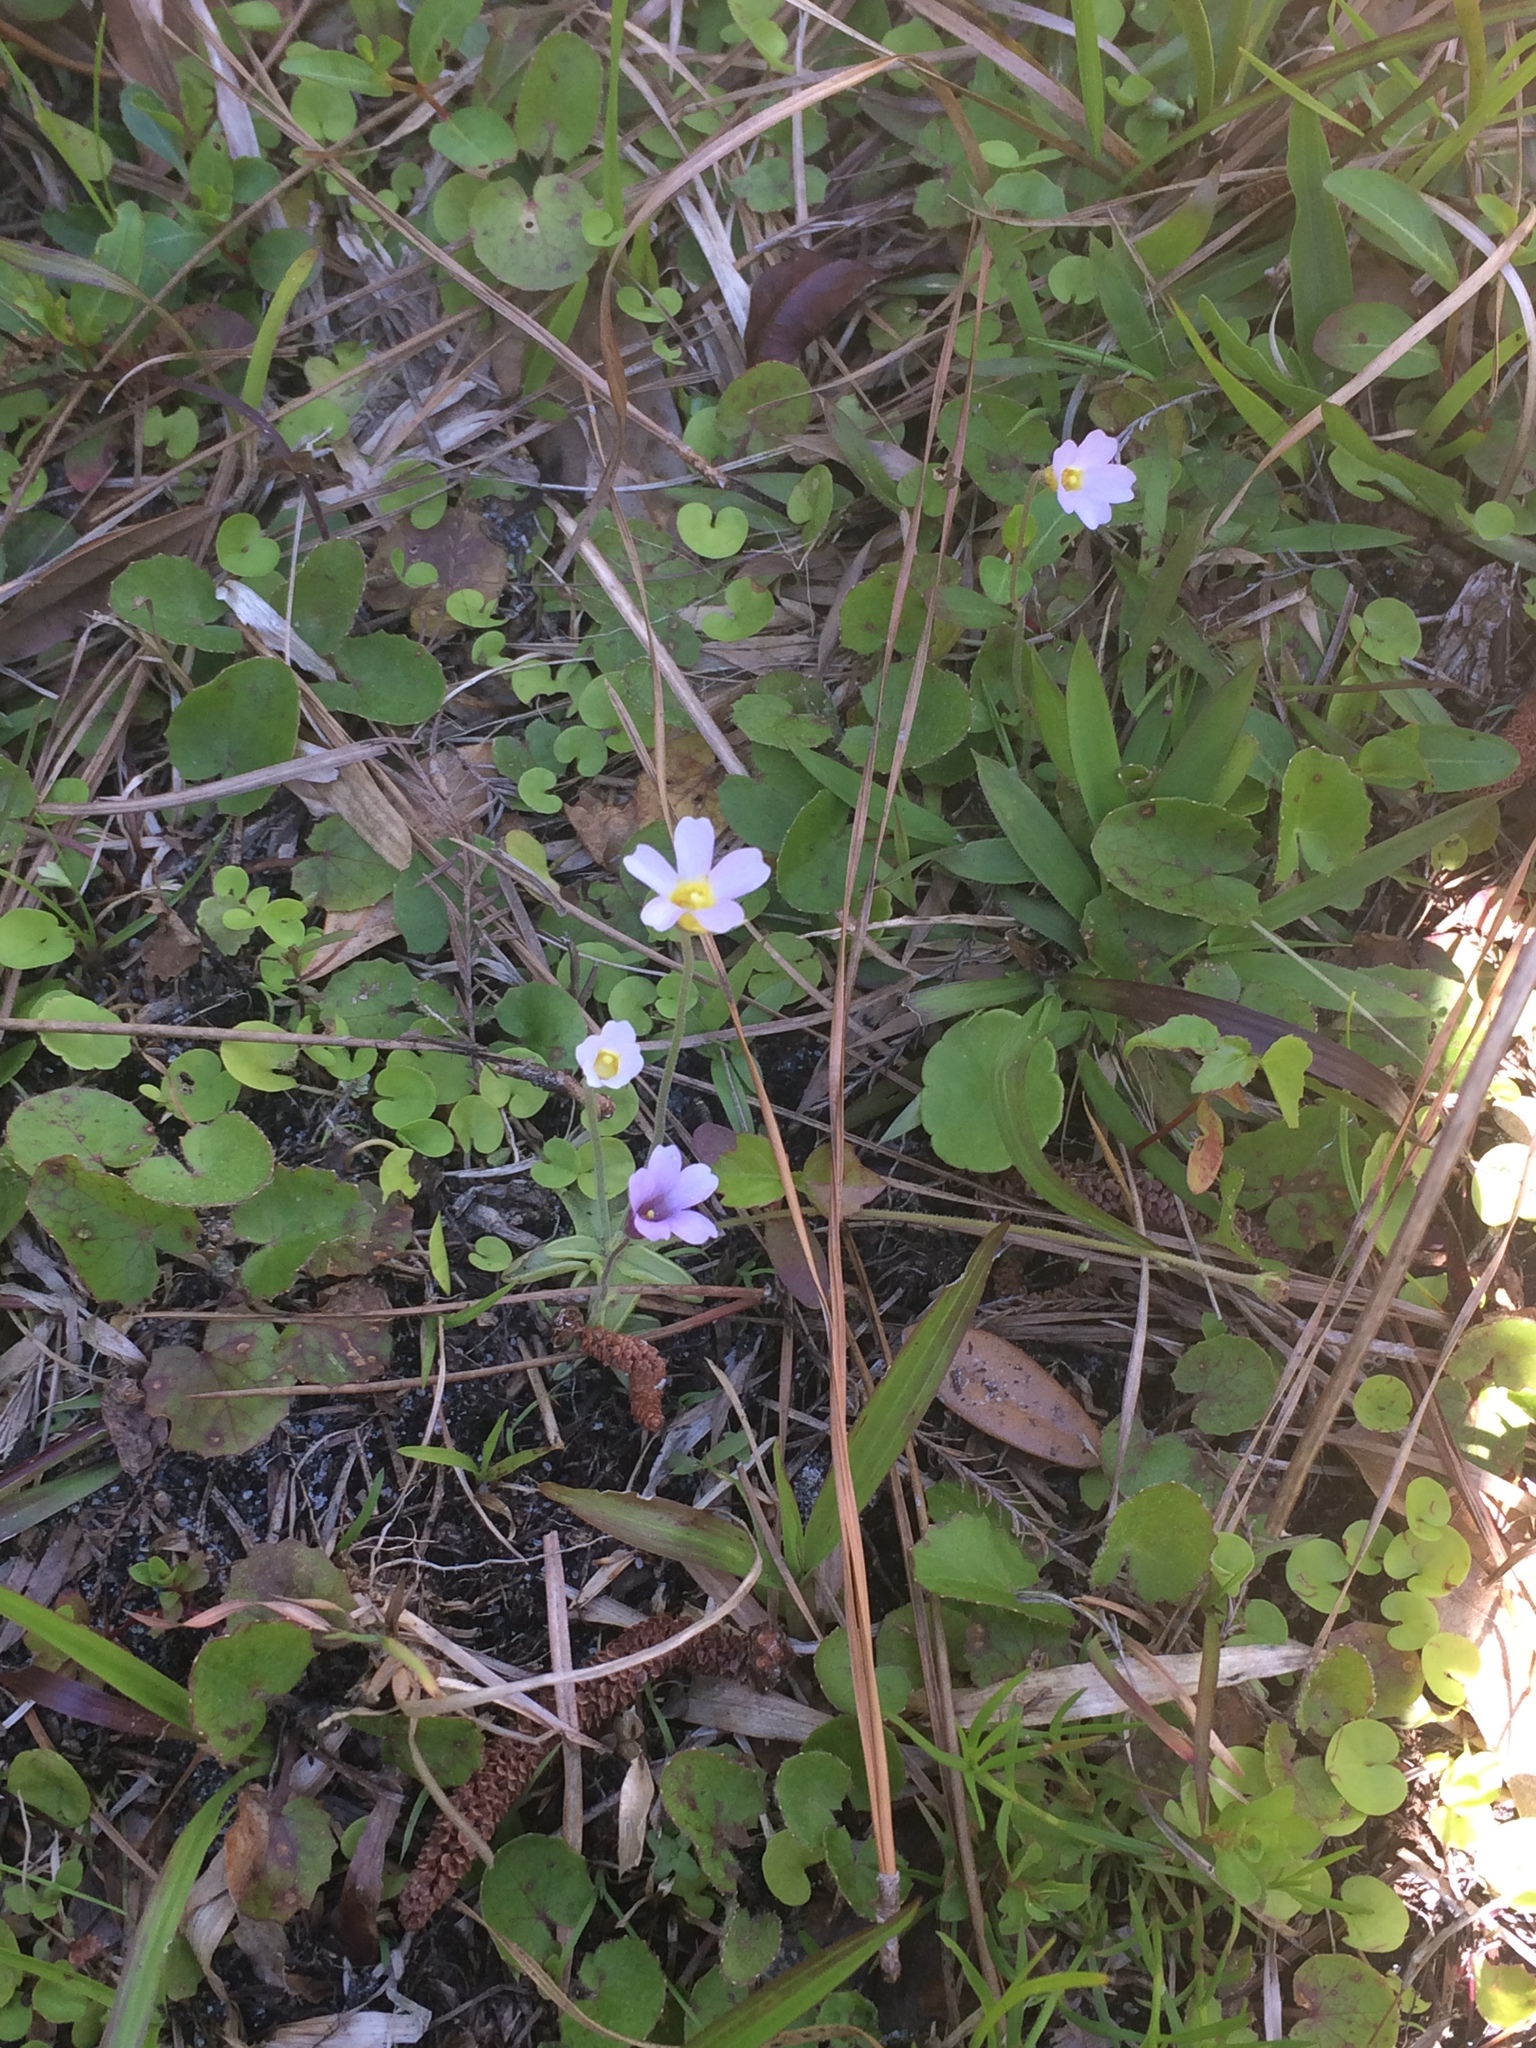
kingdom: Plantae
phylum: Tracheophyta
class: Magnoliopsida
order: Lamiales
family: Lentibulariaceae
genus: Pinguicula
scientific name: Pinguicula pumila
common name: Small butterwort
